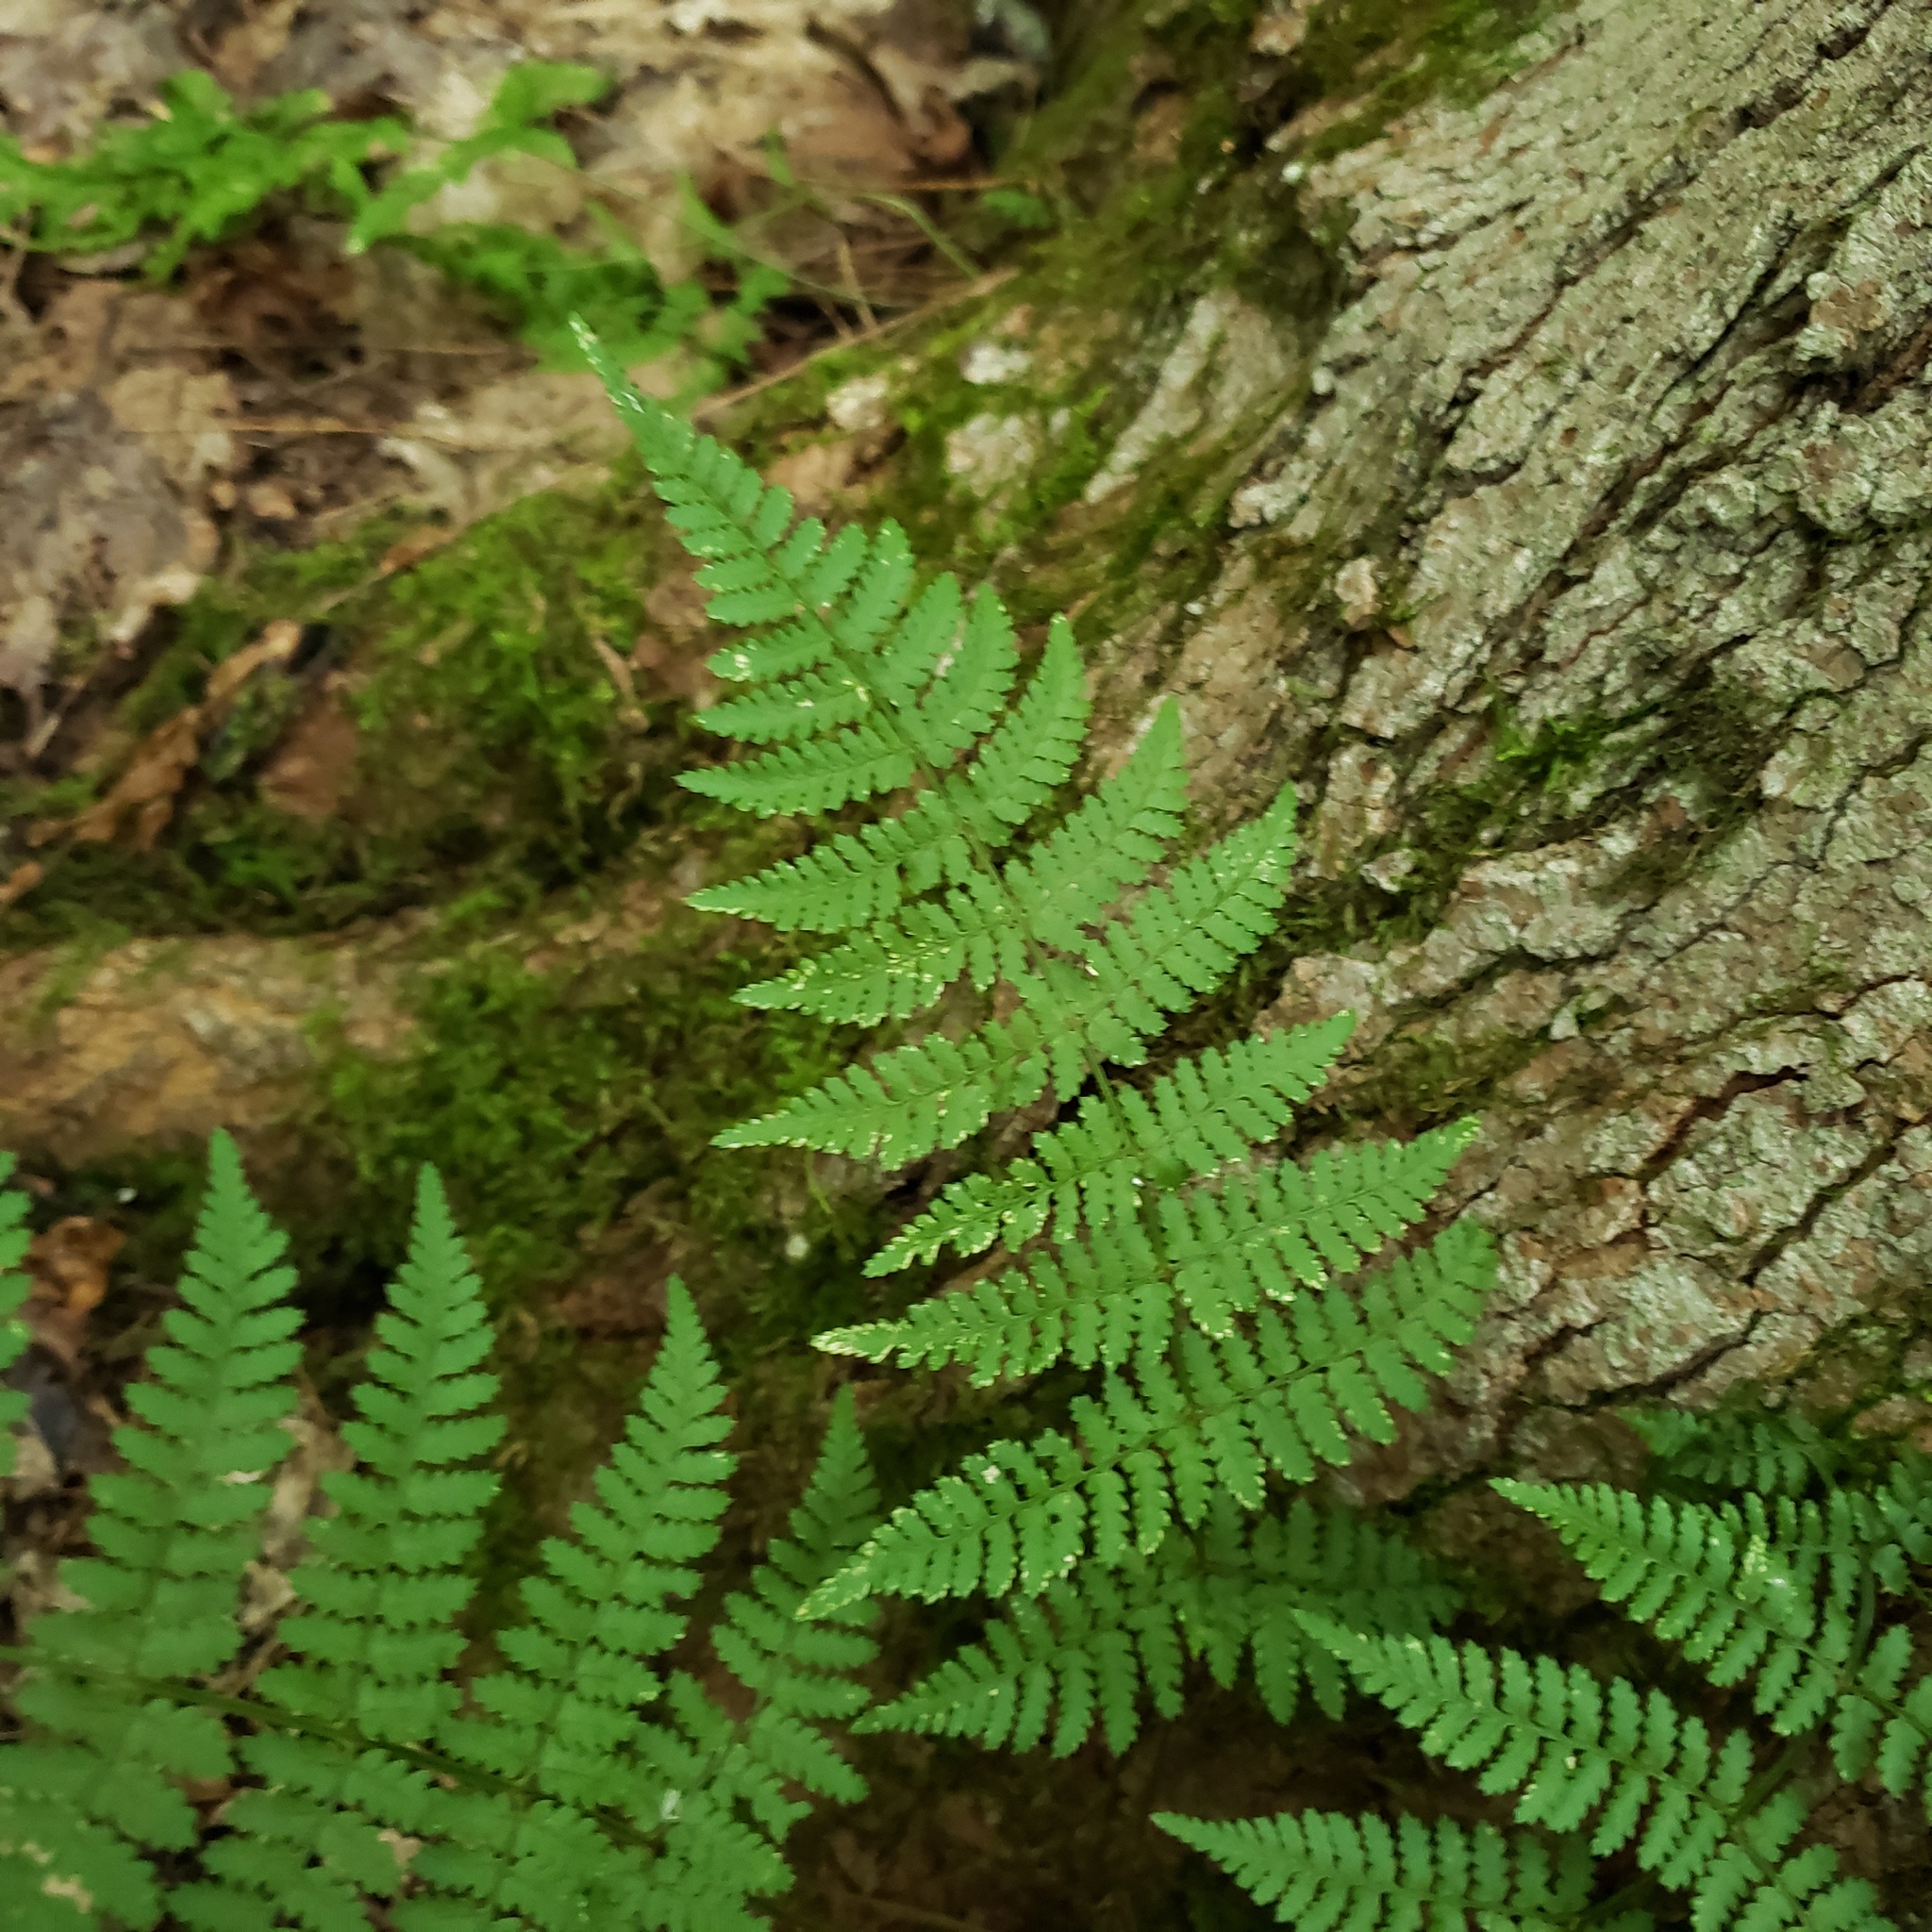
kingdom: Plantae
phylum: Tracheophyta
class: Polypodiopsida
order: Polypodiales
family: Dryopteridaceae
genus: Dryopteris
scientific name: Dryopteris intermedia
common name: Evergreen wood fern
